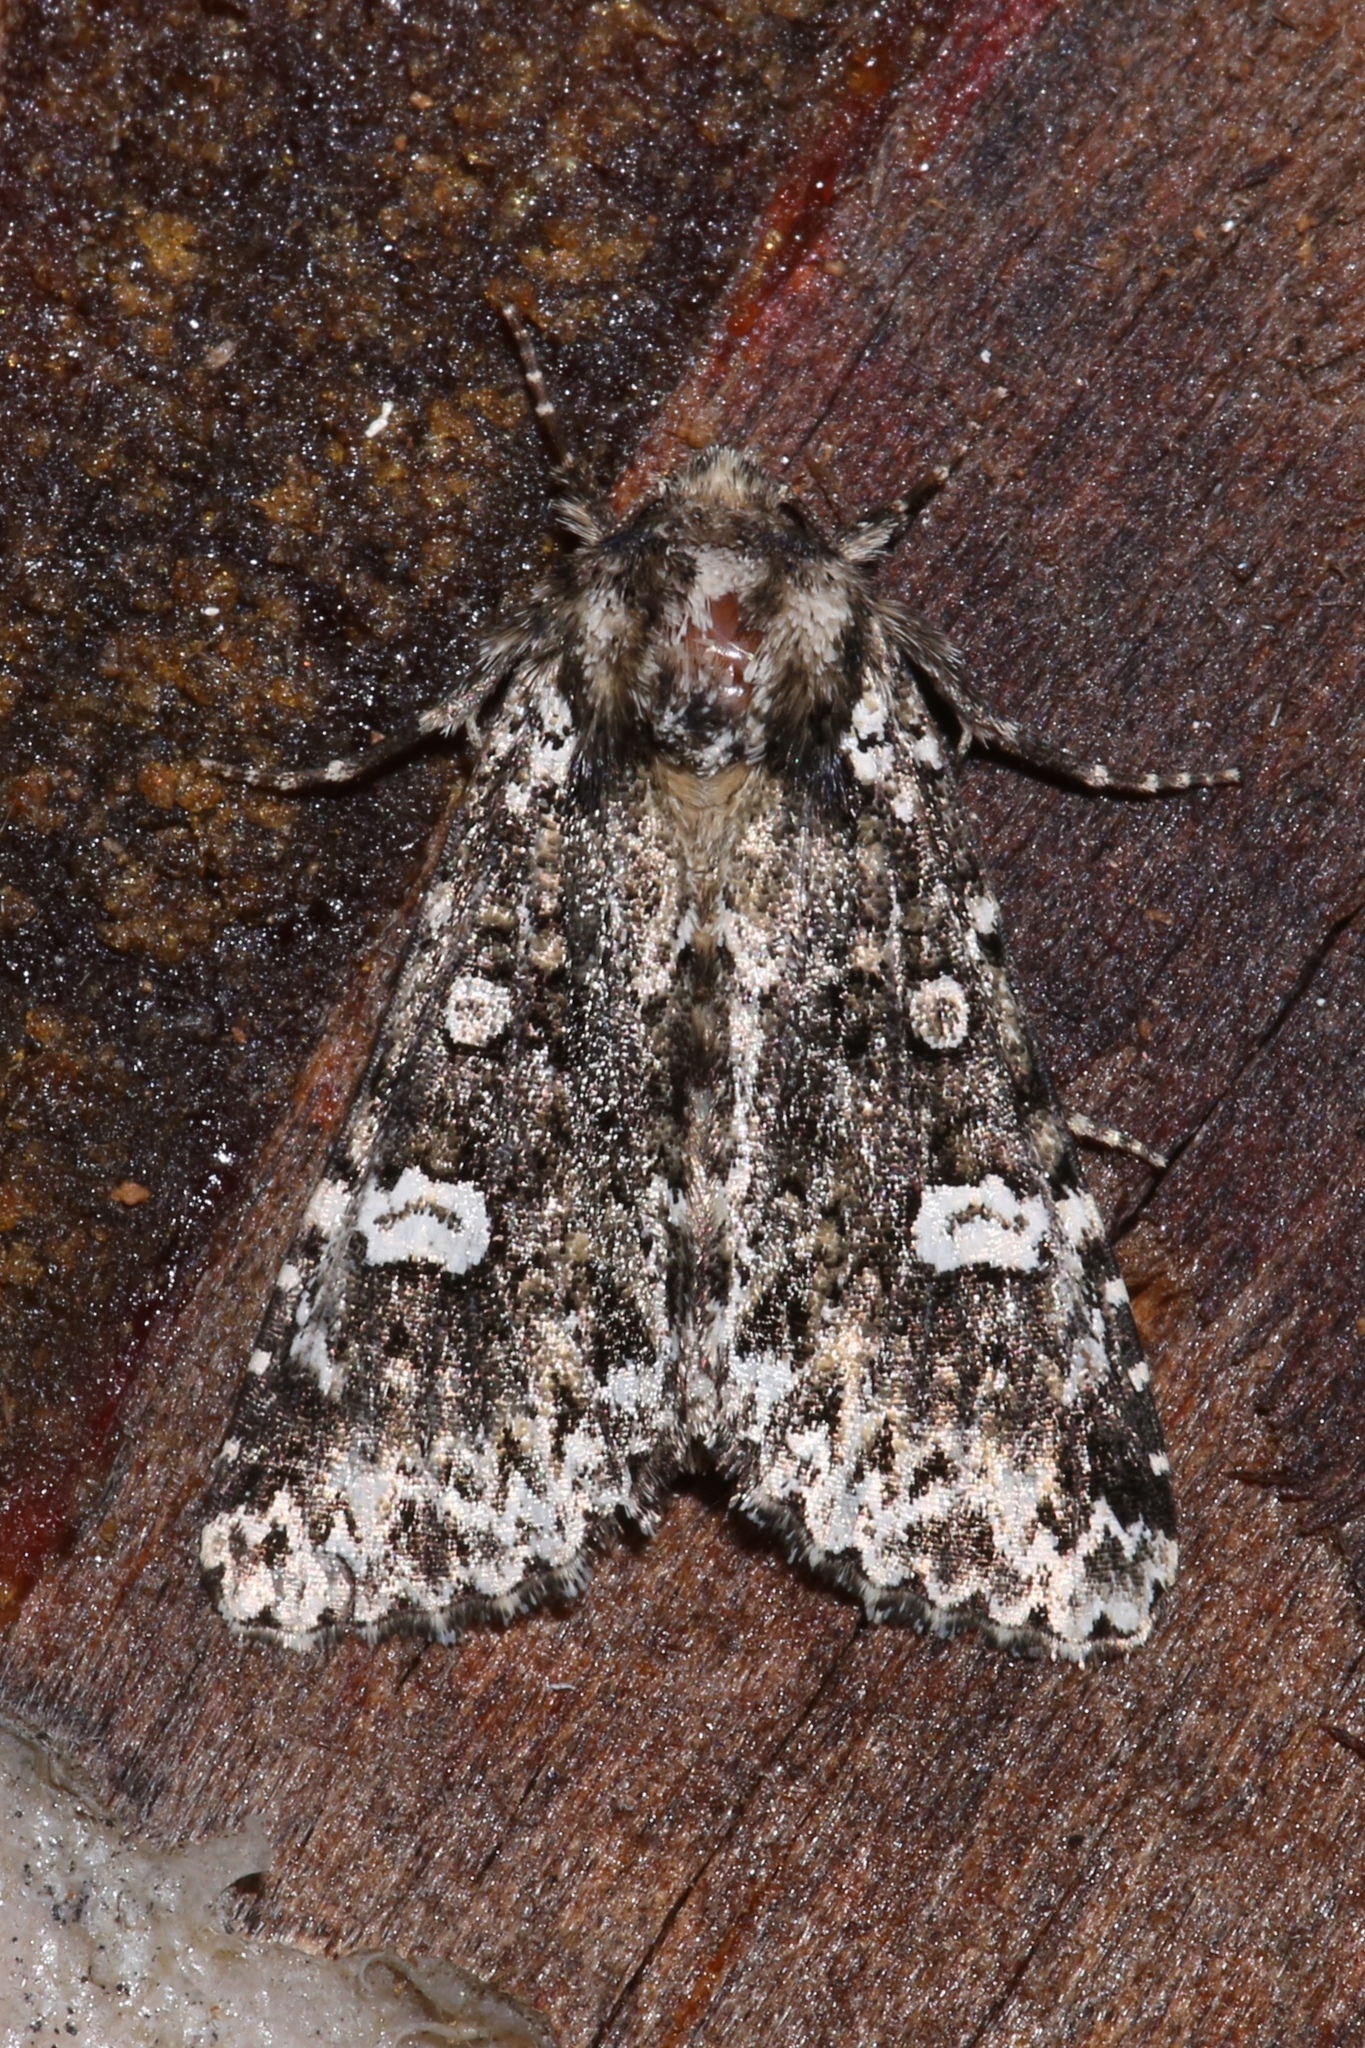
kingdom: Animalia
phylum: Arthropoda
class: Insecta
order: Lepidoptera
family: Noctuidae
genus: Melanchra
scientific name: Melanchra adjuncta
